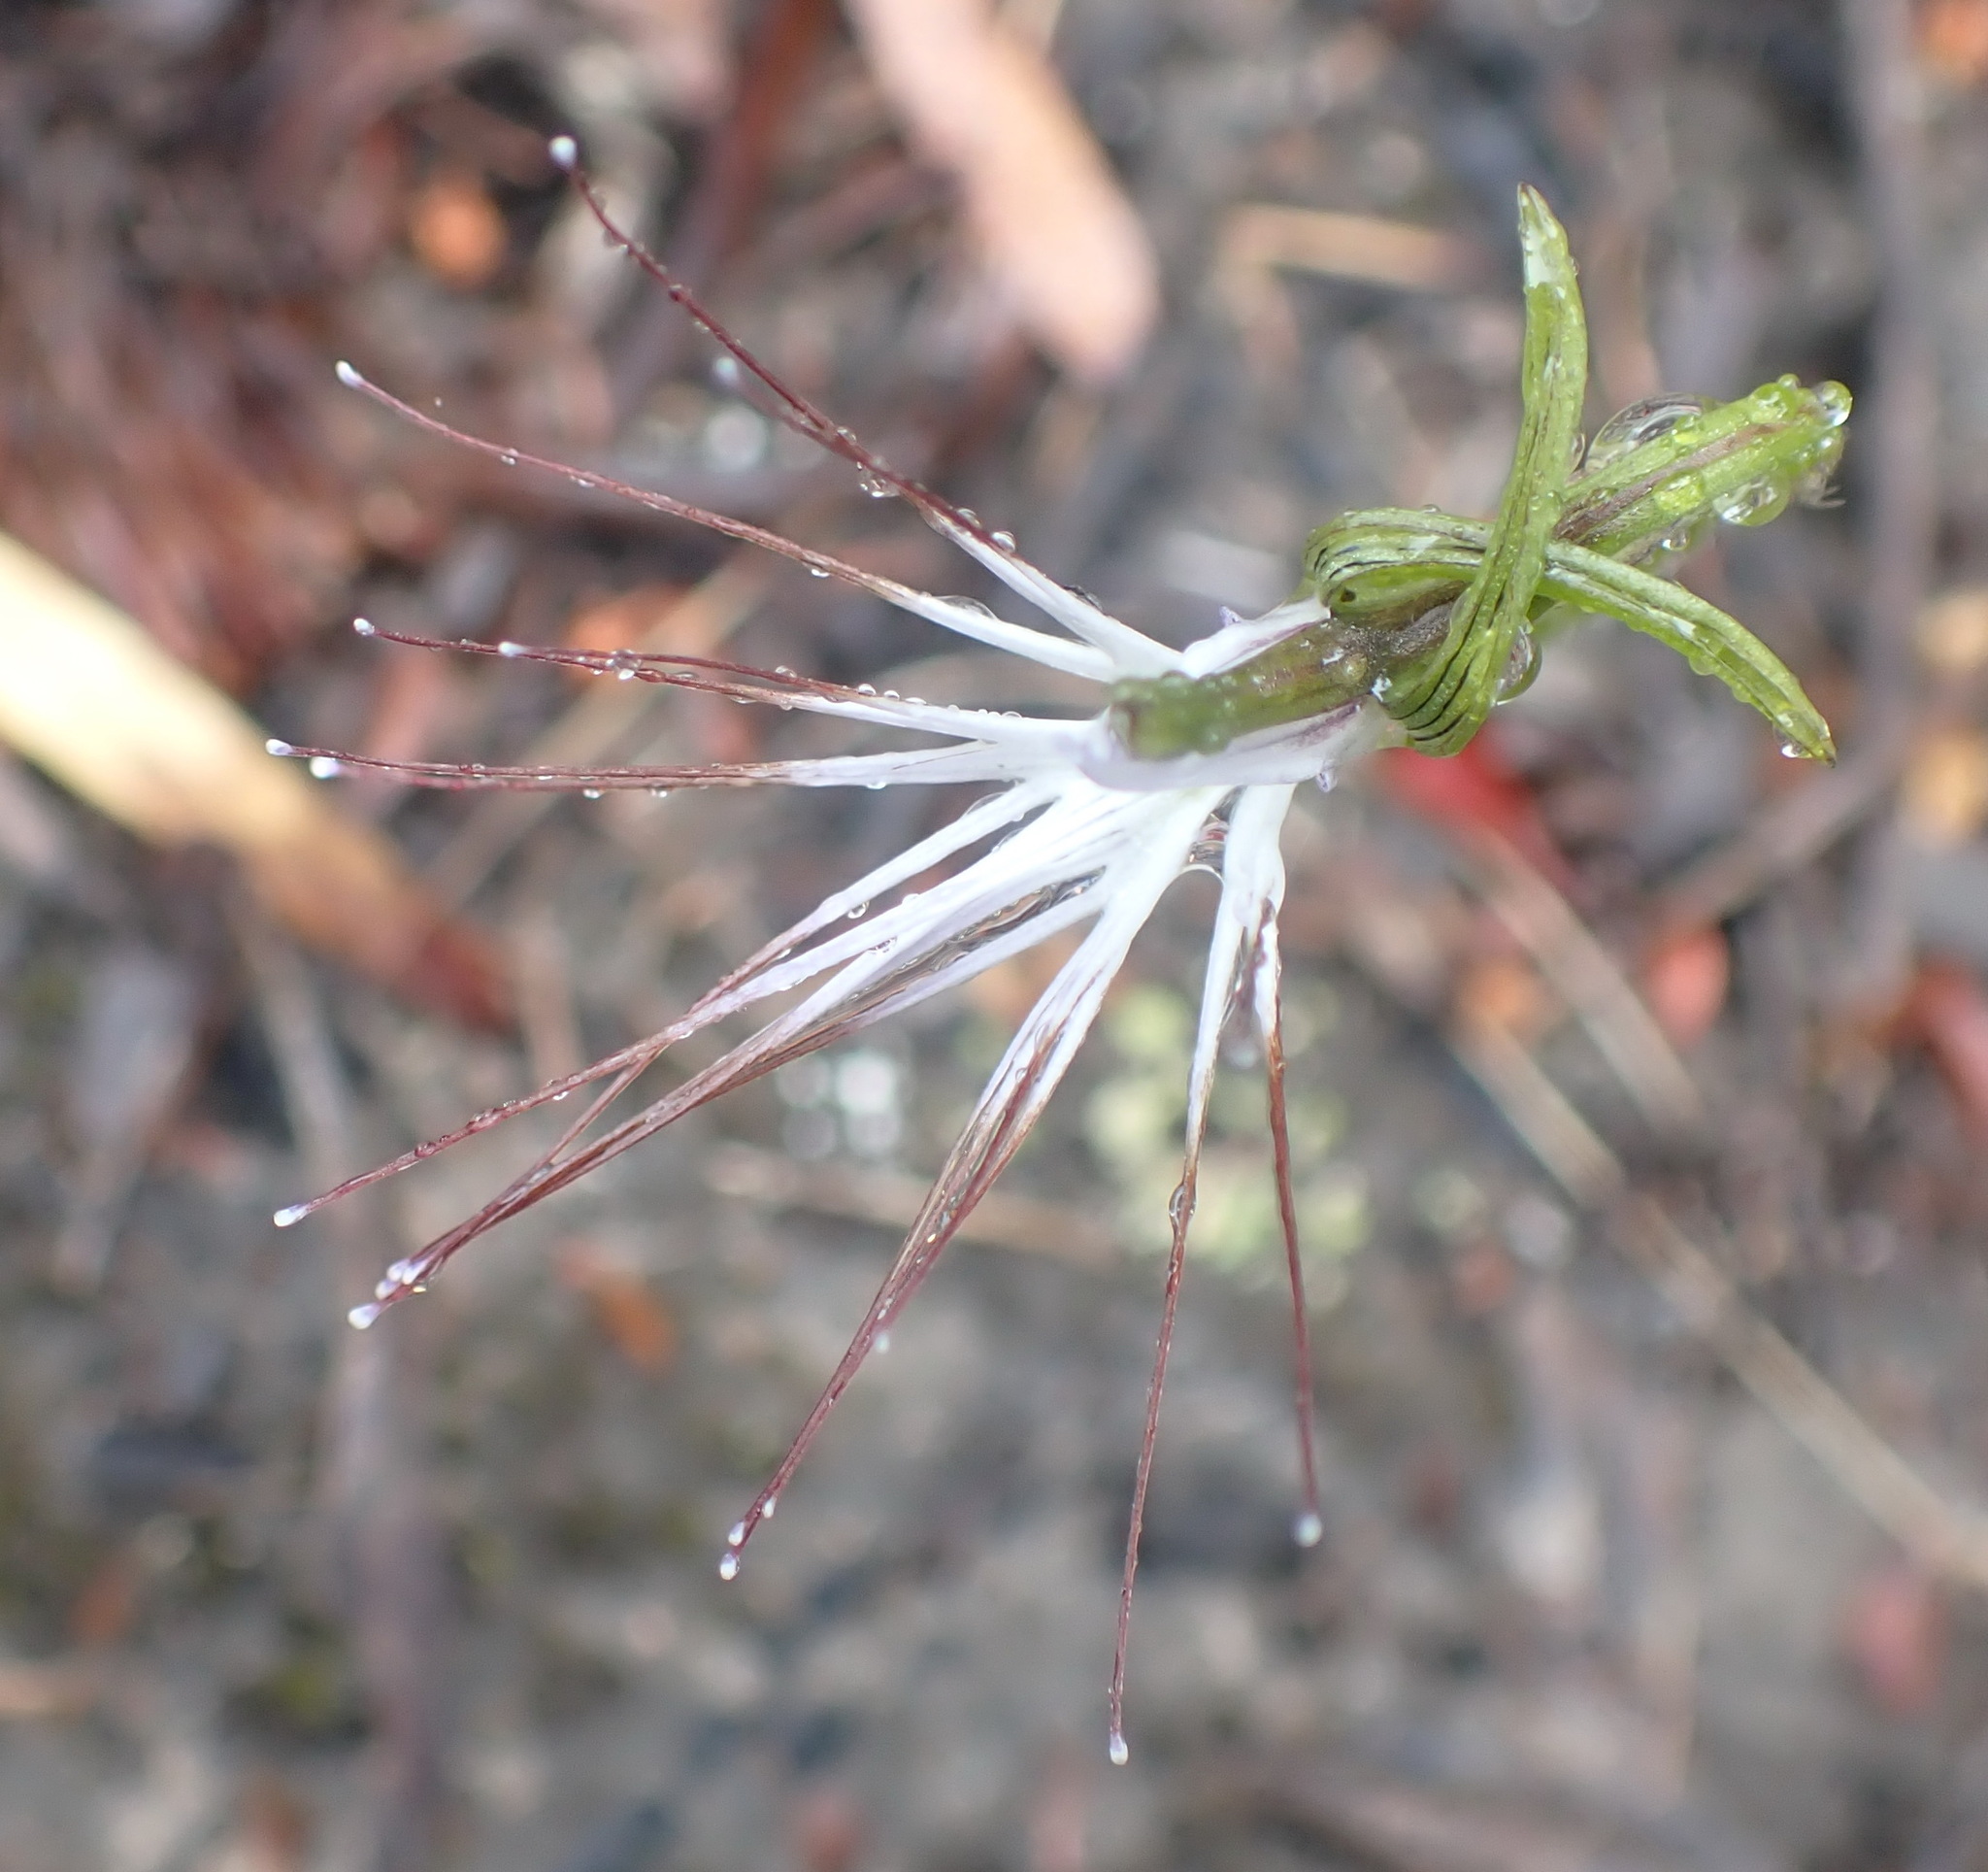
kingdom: Plantae
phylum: Tracheophyta
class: Liliopsida
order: Asparagales
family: Orchidaceae
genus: Holothrix
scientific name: Holothrix etheliae
